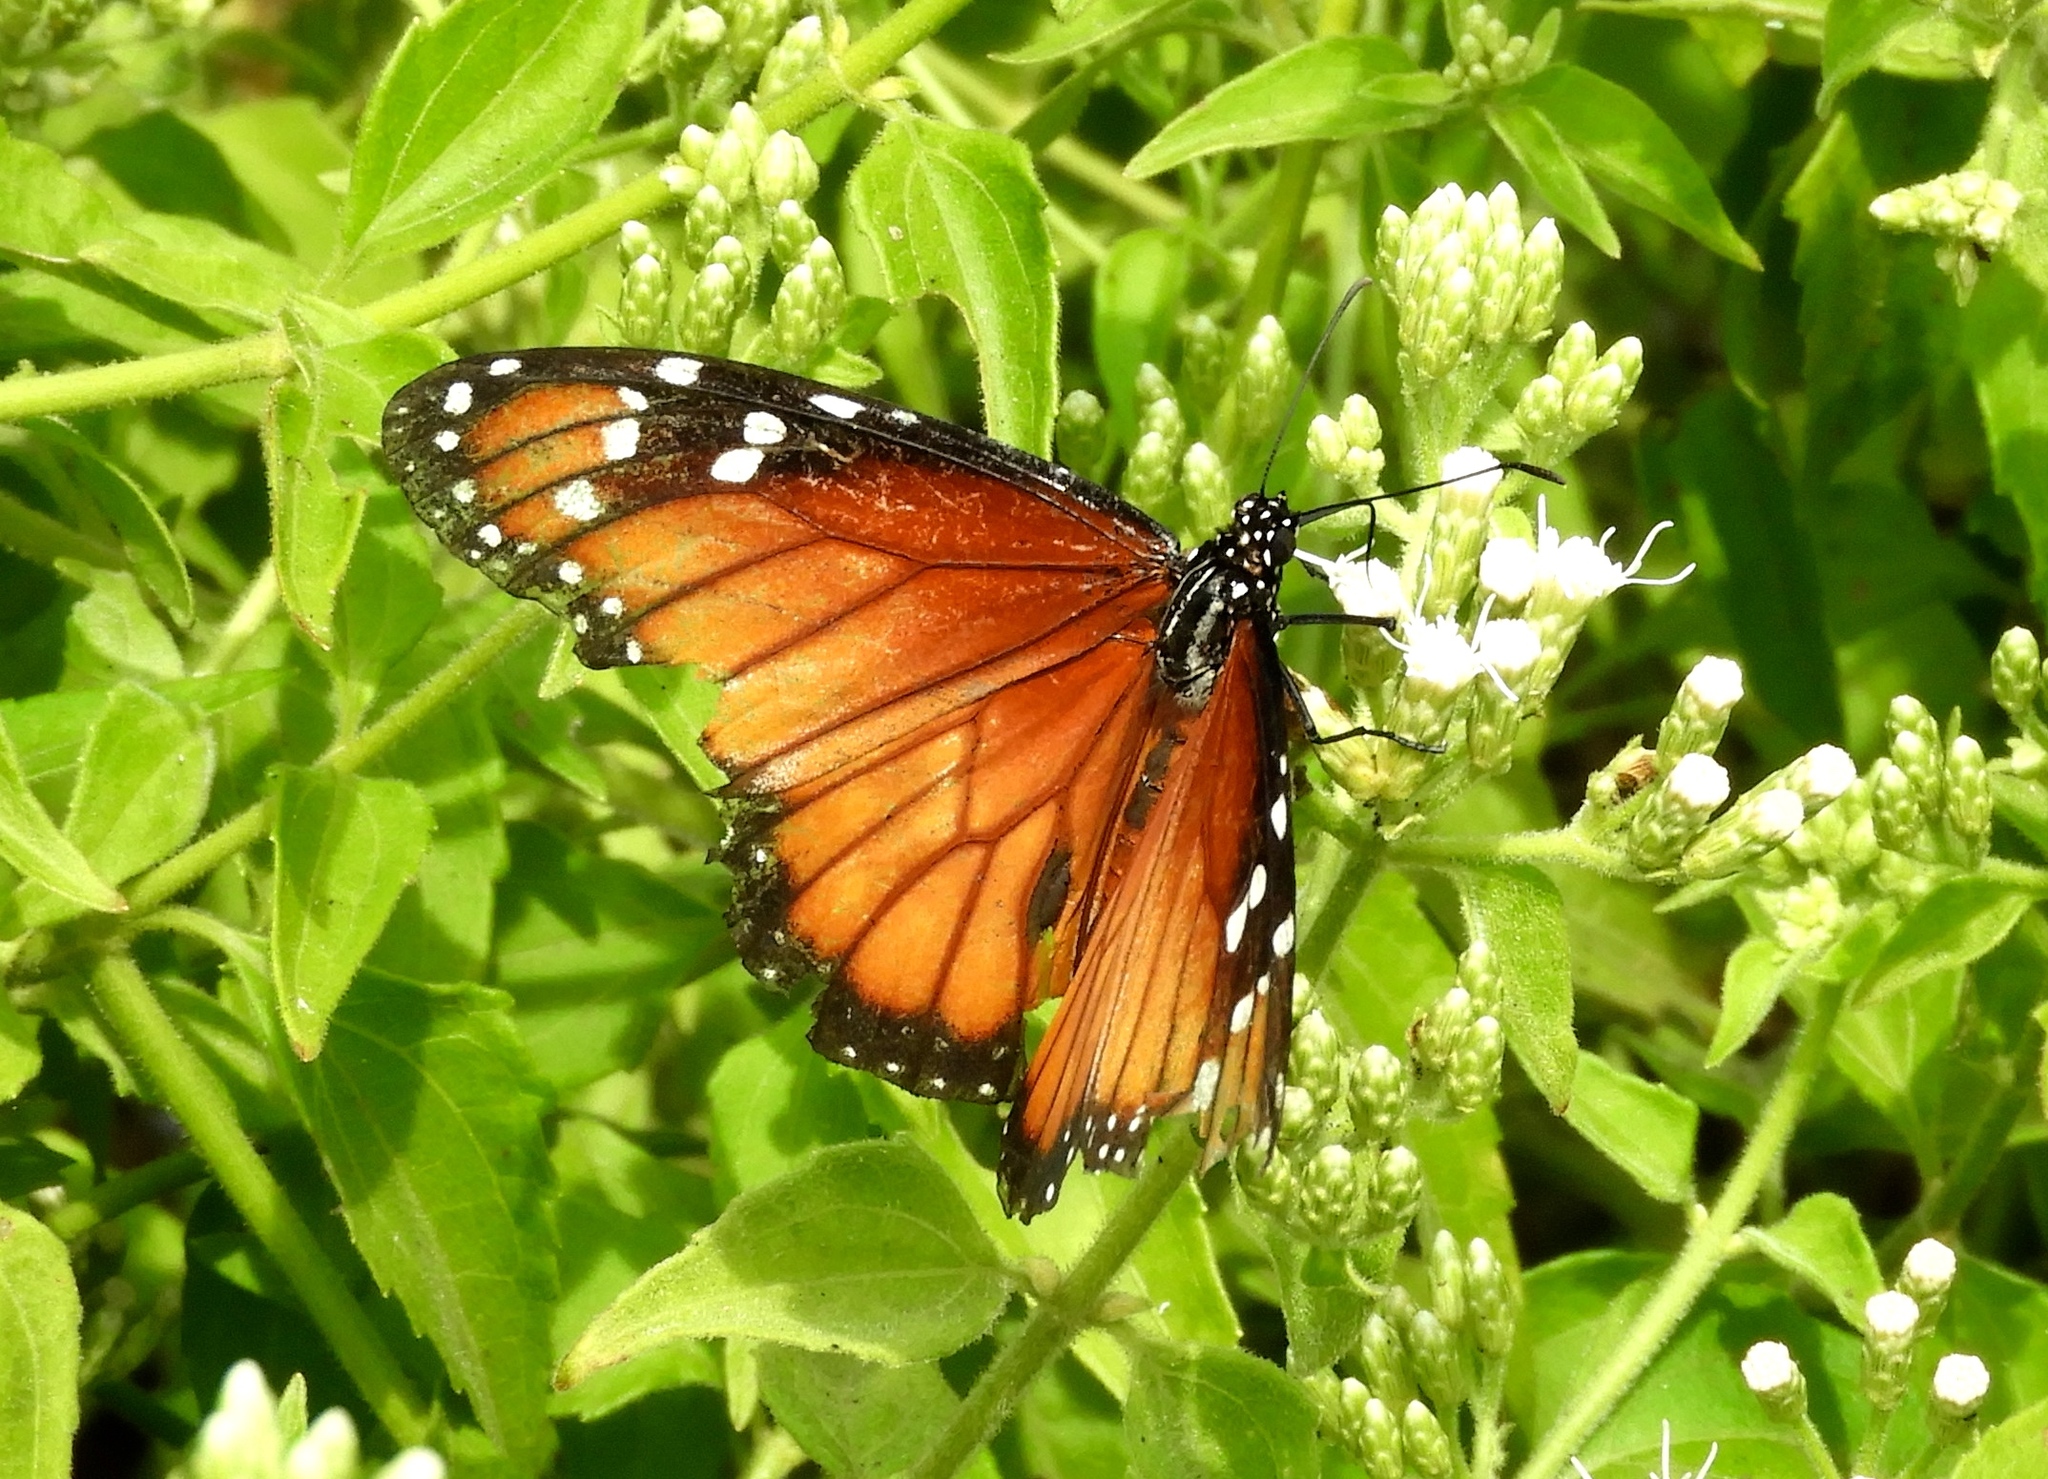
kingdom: Animalia
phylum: Arthropoda
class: Insecta
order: Lepidoptera
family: Nymphalidae
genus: Danaus
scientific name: Danaus eresimus
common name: Soldier
